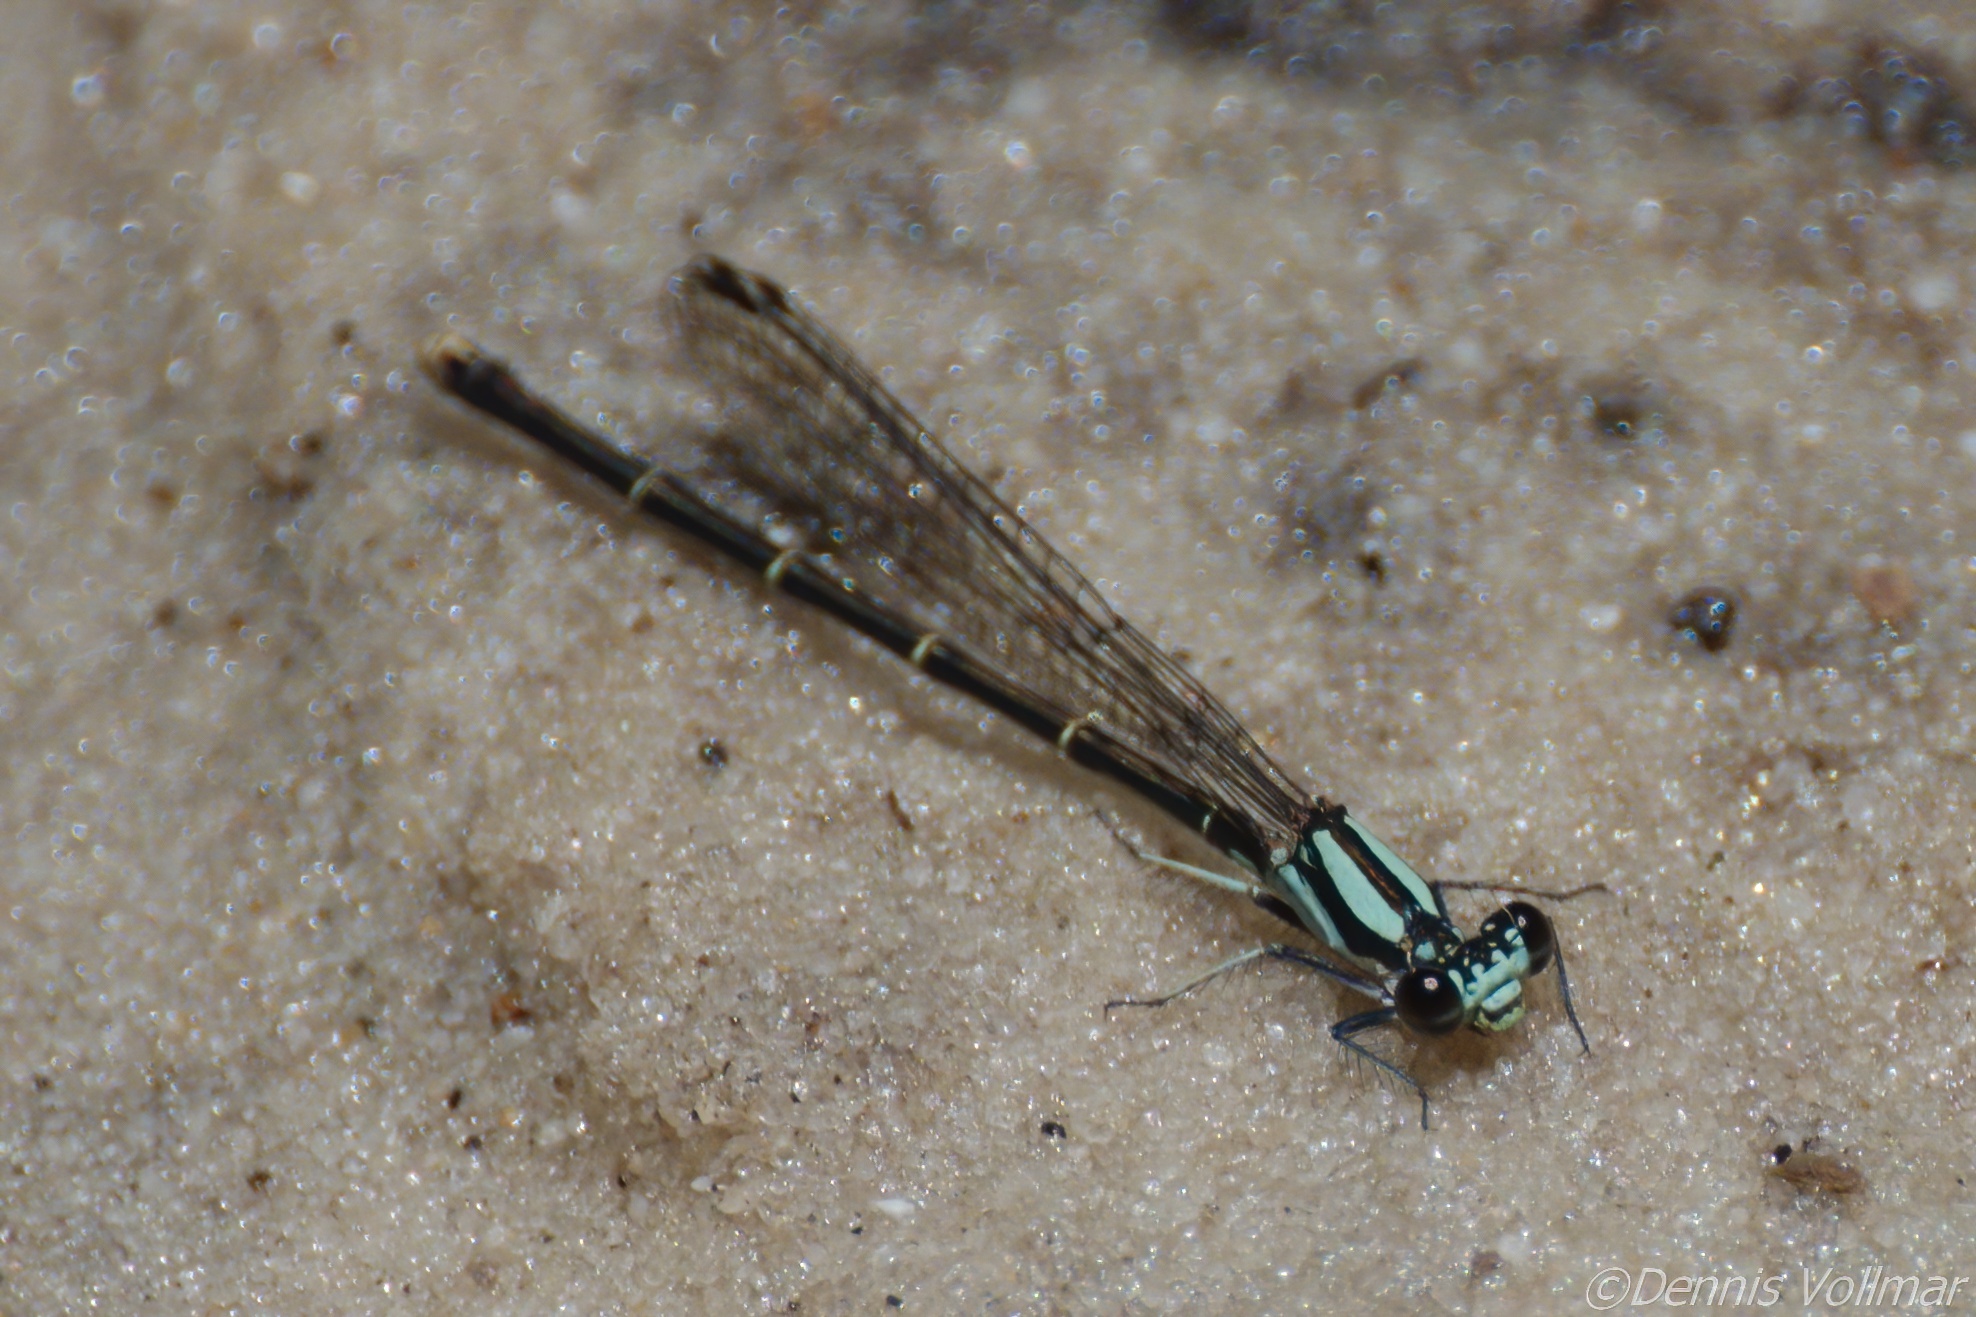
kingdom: Animalia
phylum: Arthropoda
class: Insecta
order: Odonata
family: Coenagrionidae
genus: Argia
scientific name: Argia tibialis
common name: Blue-tipped dancer
